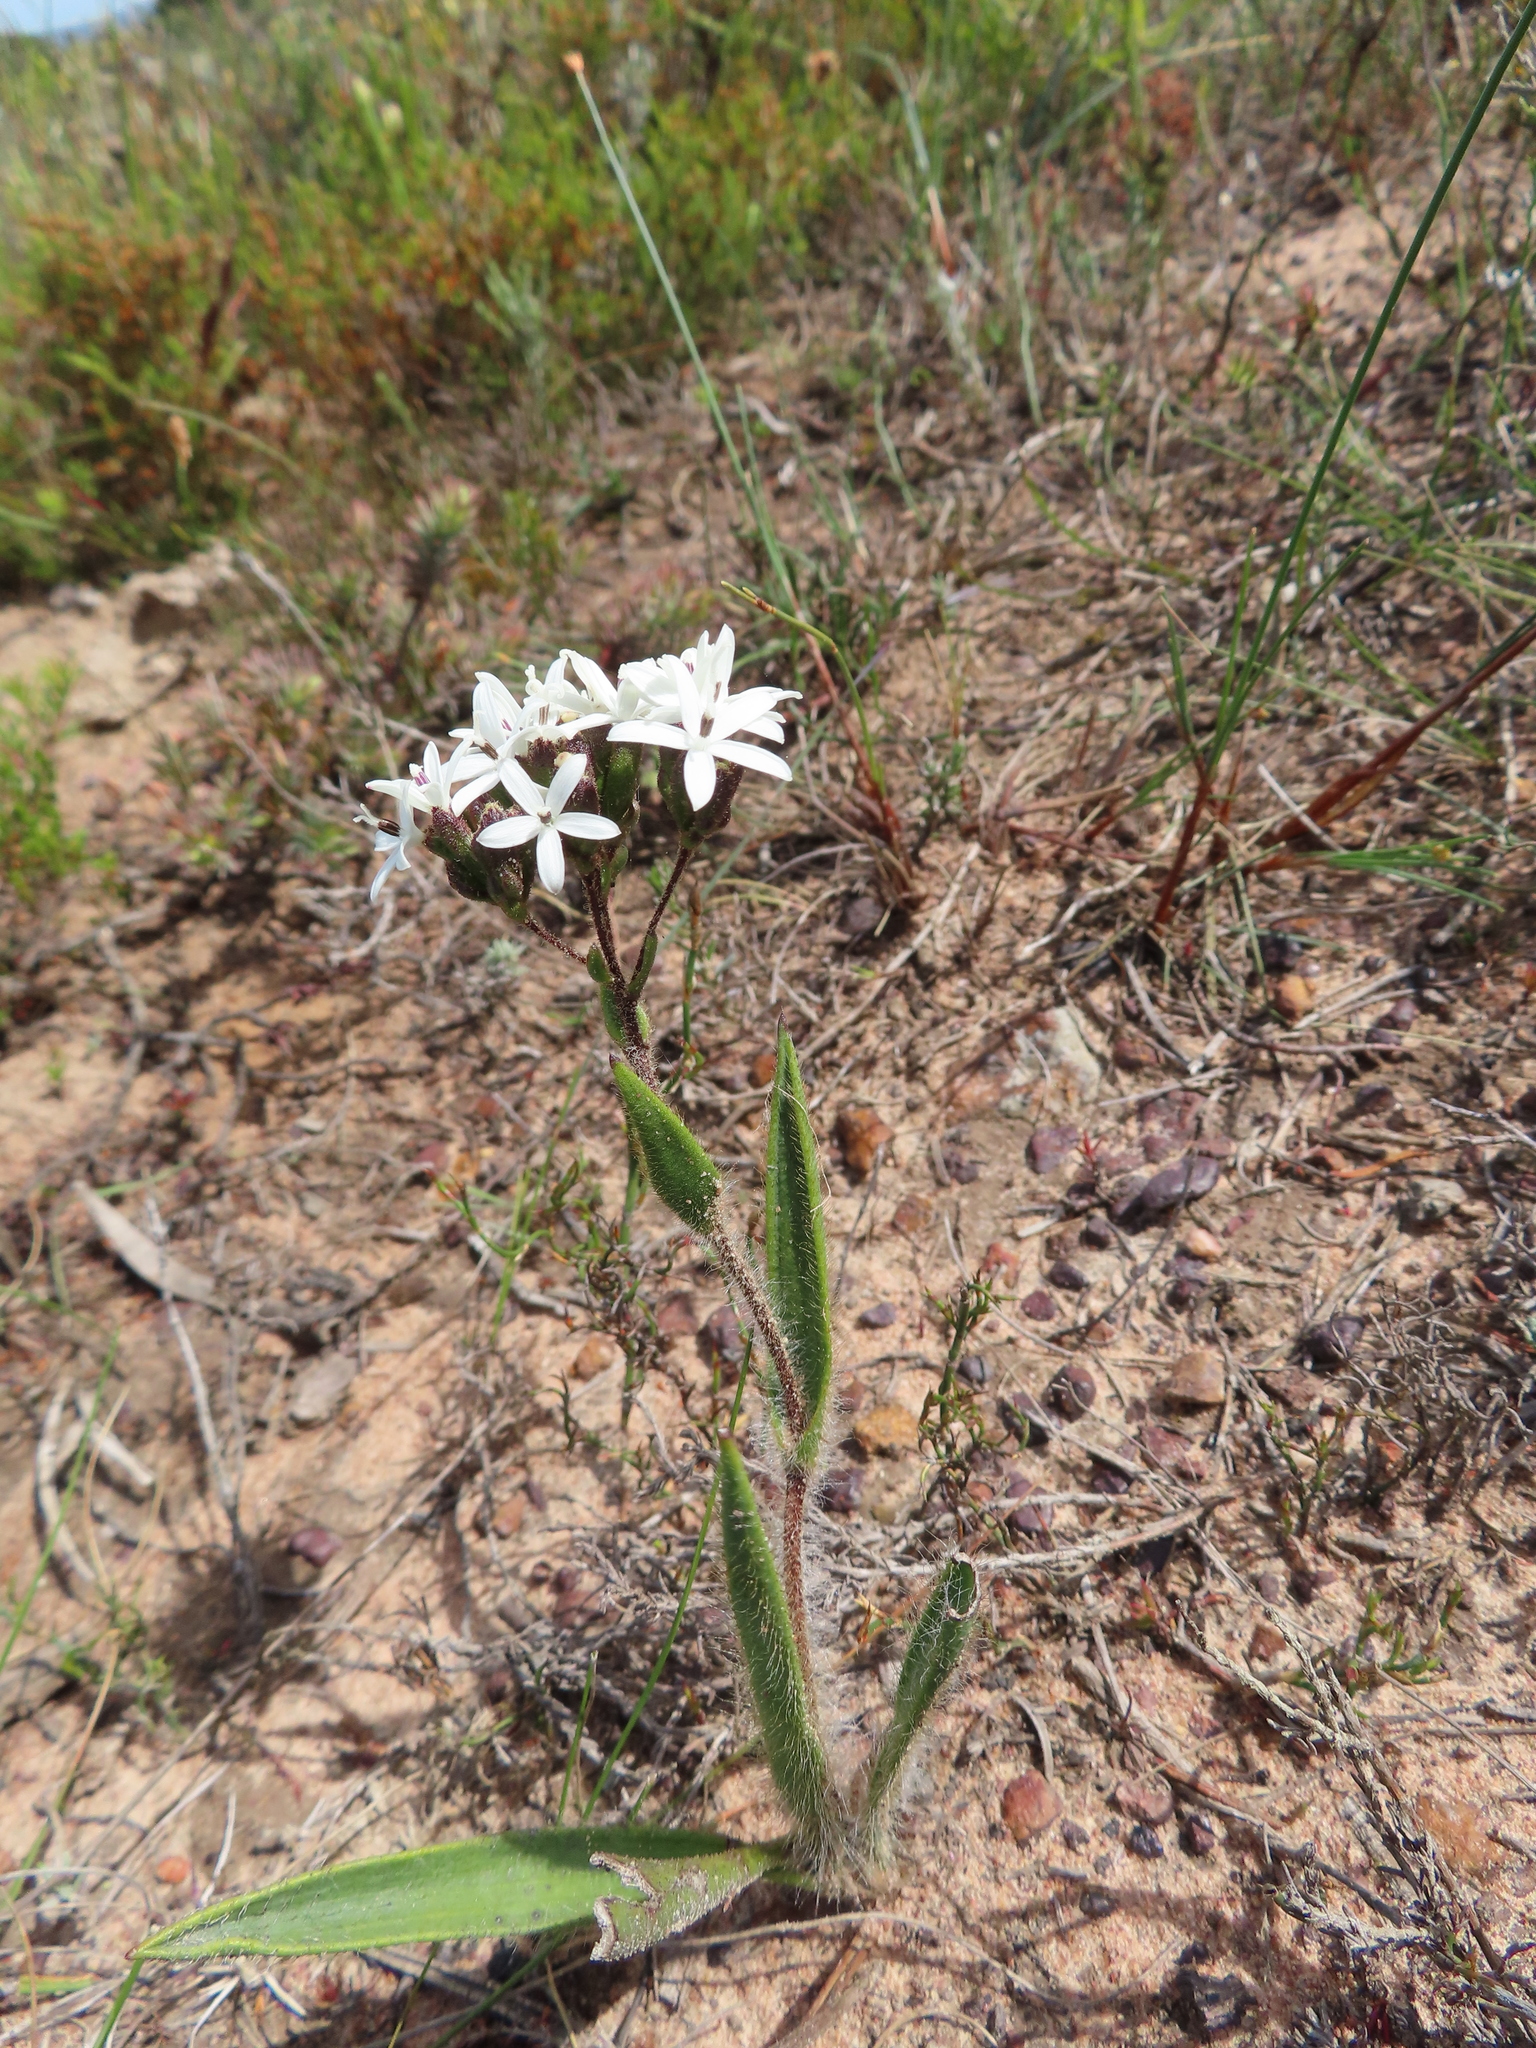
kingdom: Plantae
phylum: Tracheophyta
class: Magnoliopsida
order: Asterales
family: Asteraceae
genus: Corymbium
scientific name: Corymbium villosum
